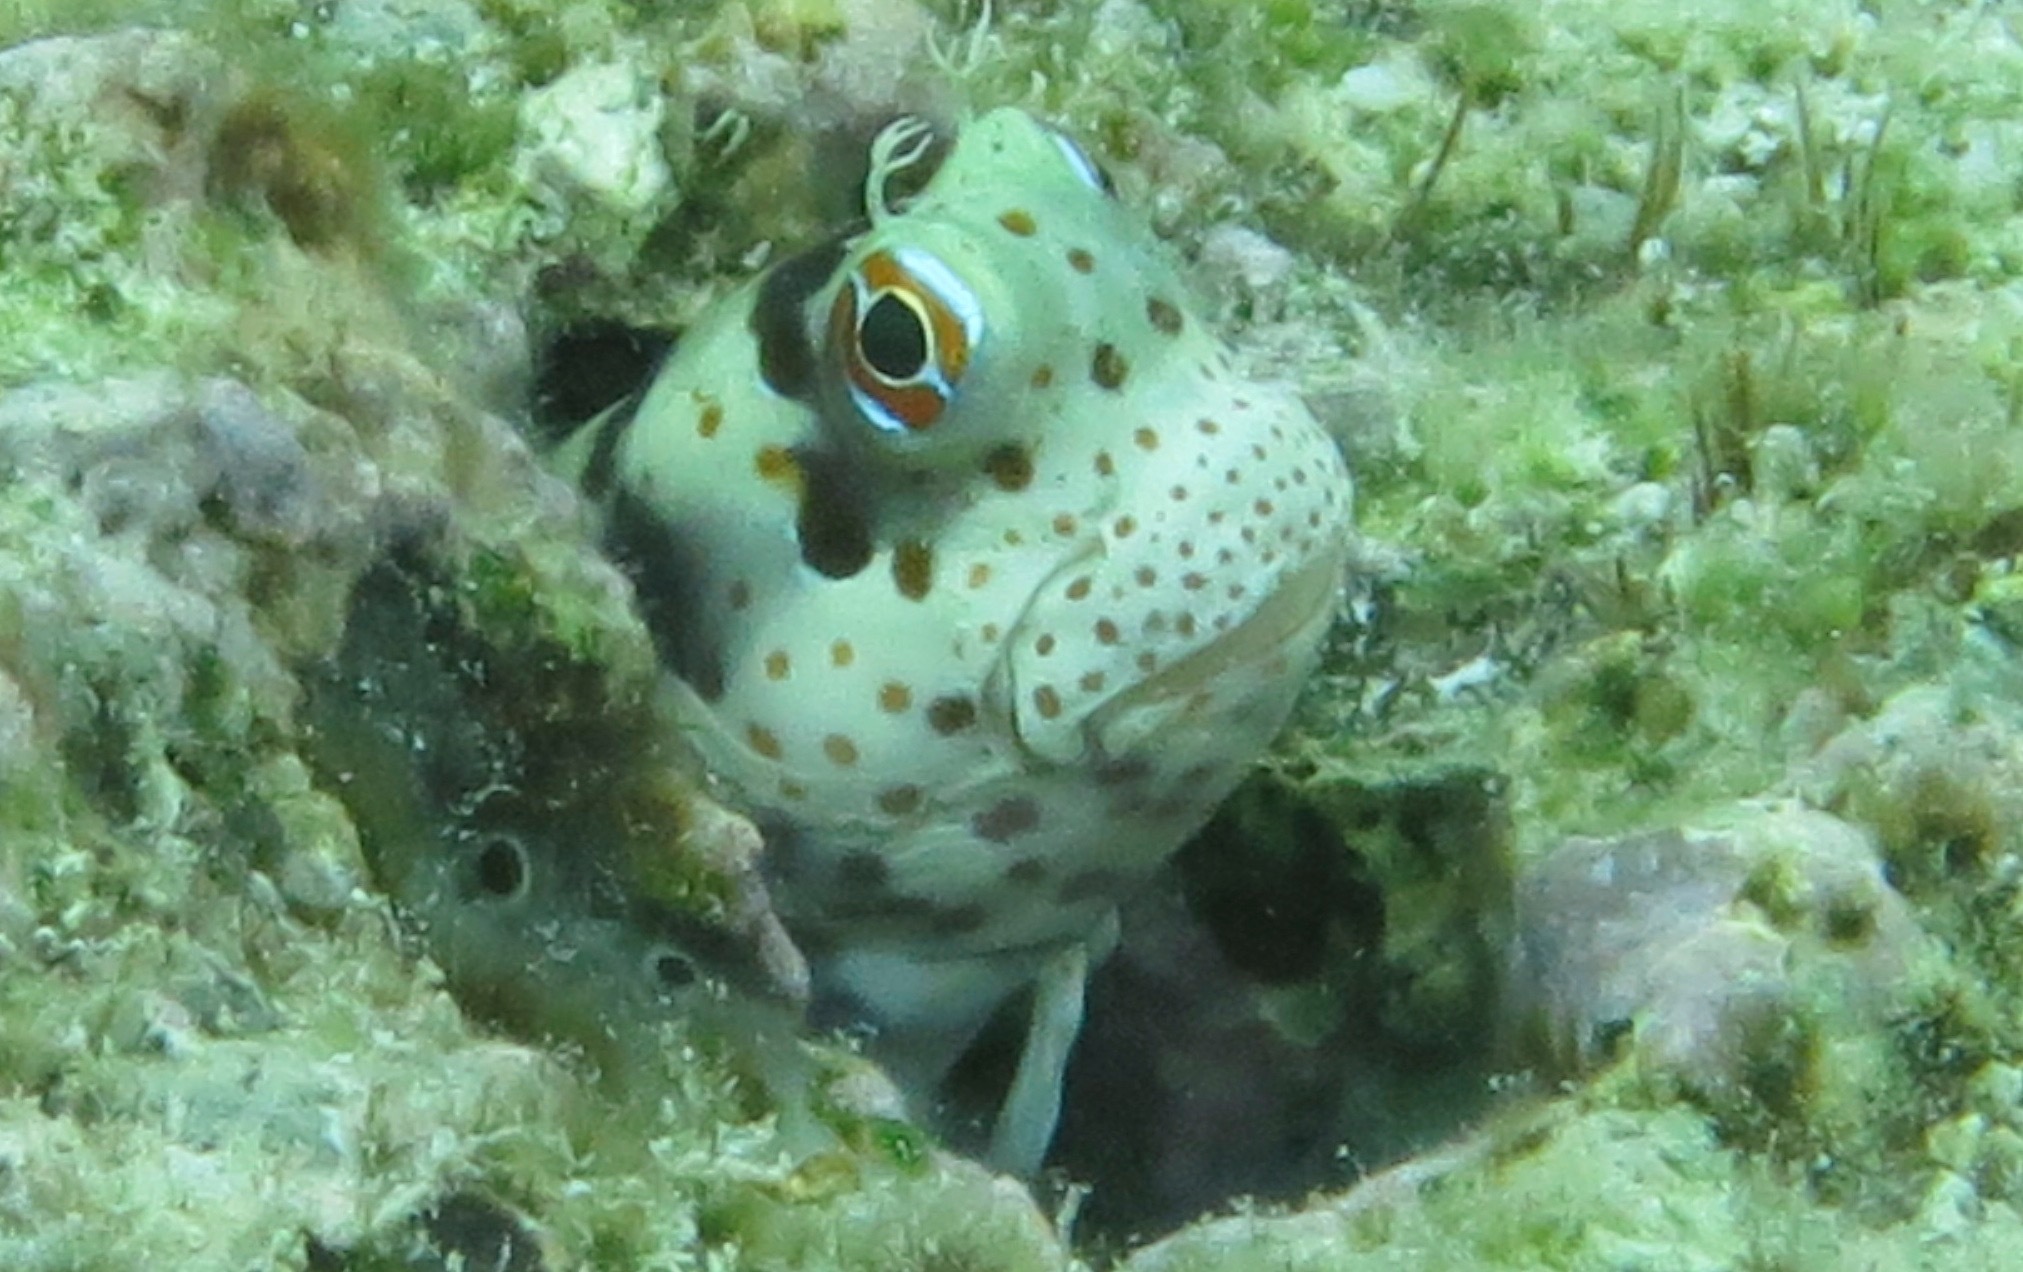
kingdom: Animalia
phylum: Chordata
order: Perciformes
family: Blenniidae
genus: Blenniella
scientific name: Blenniella chrysospilos
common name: Orange-spotted blenny
